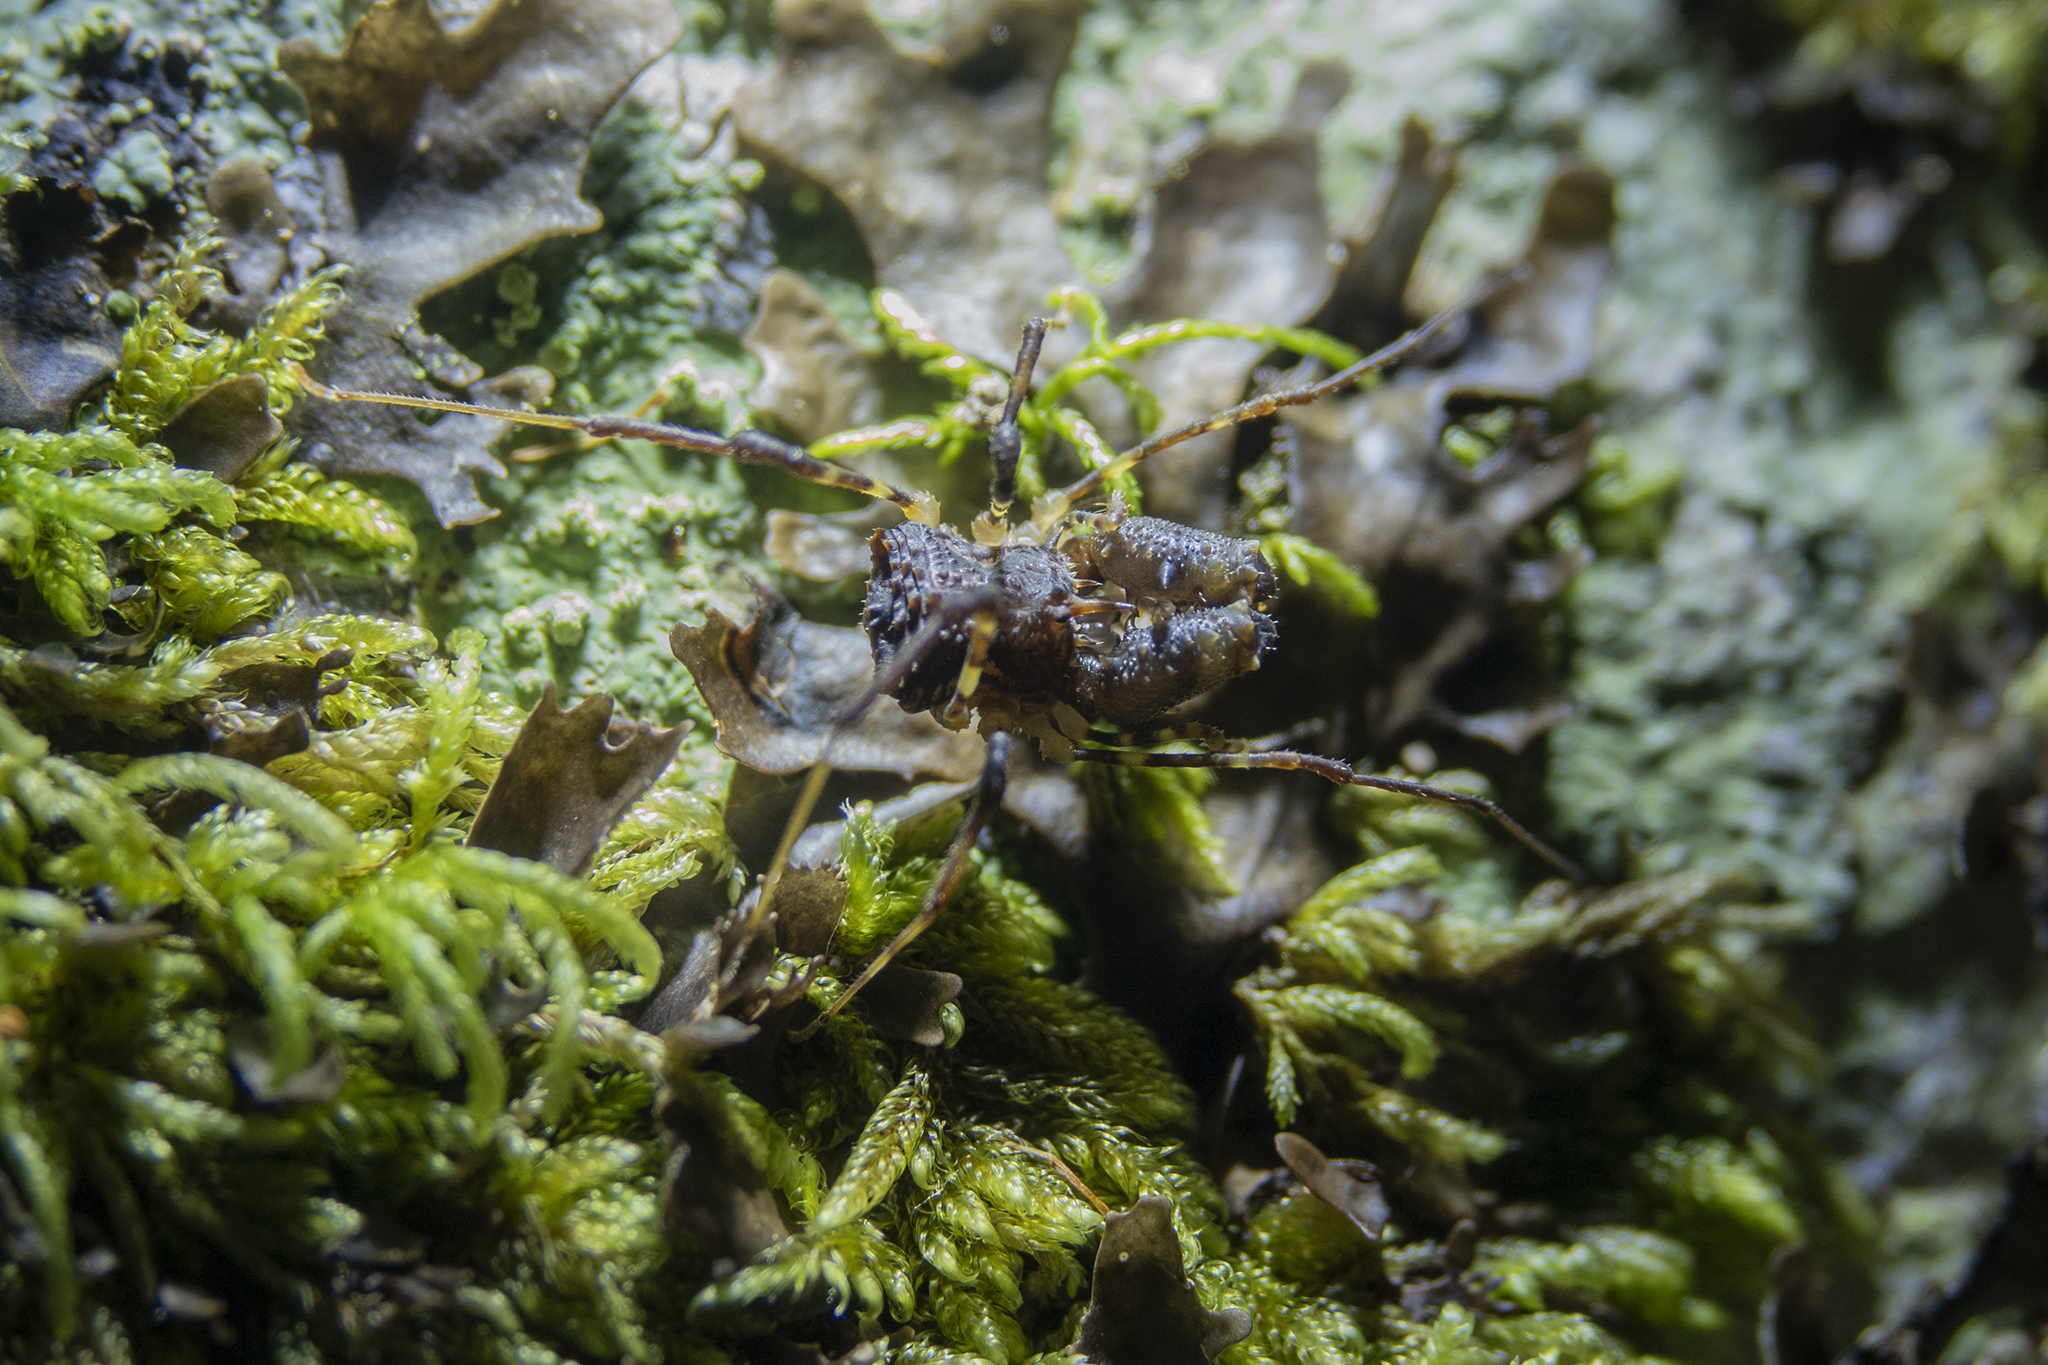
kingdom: Animalia
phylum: Arthropoda
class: Arachnida
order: Opiliones
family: Triaenonychidae
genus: Karamea
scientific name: Karamea lobata
